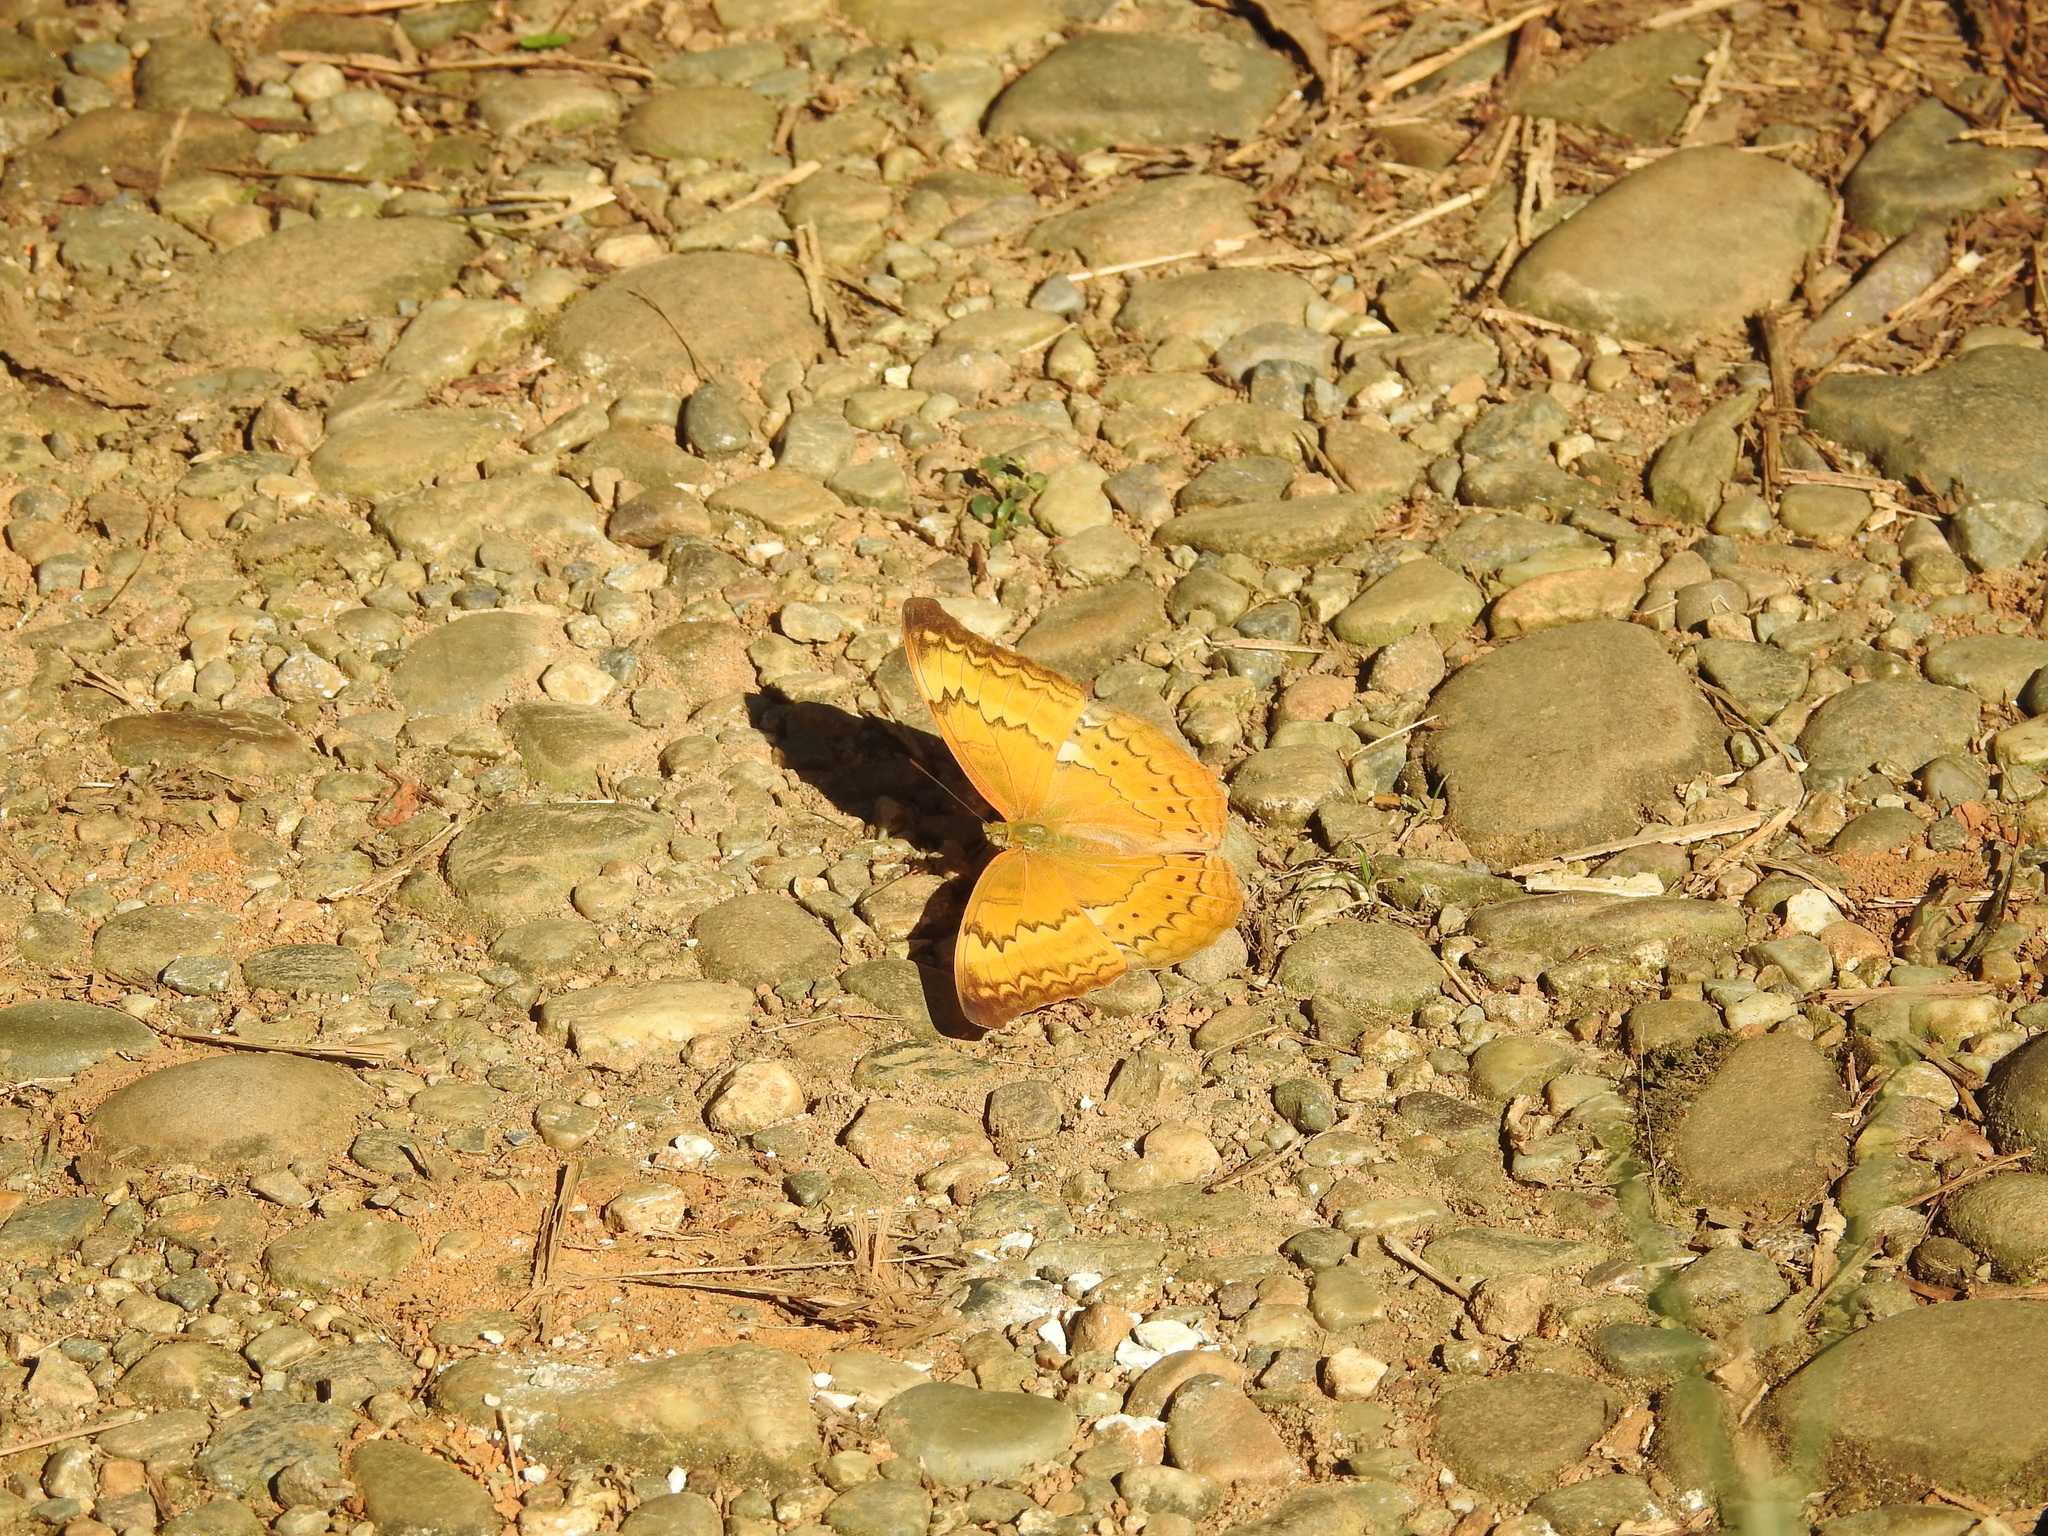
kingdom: Animalia
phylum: Arthropoda
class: Insecta
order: Lepidoptera
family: Nymphalidae
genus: Cirrochroa
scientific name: Cirrochroa aoris
